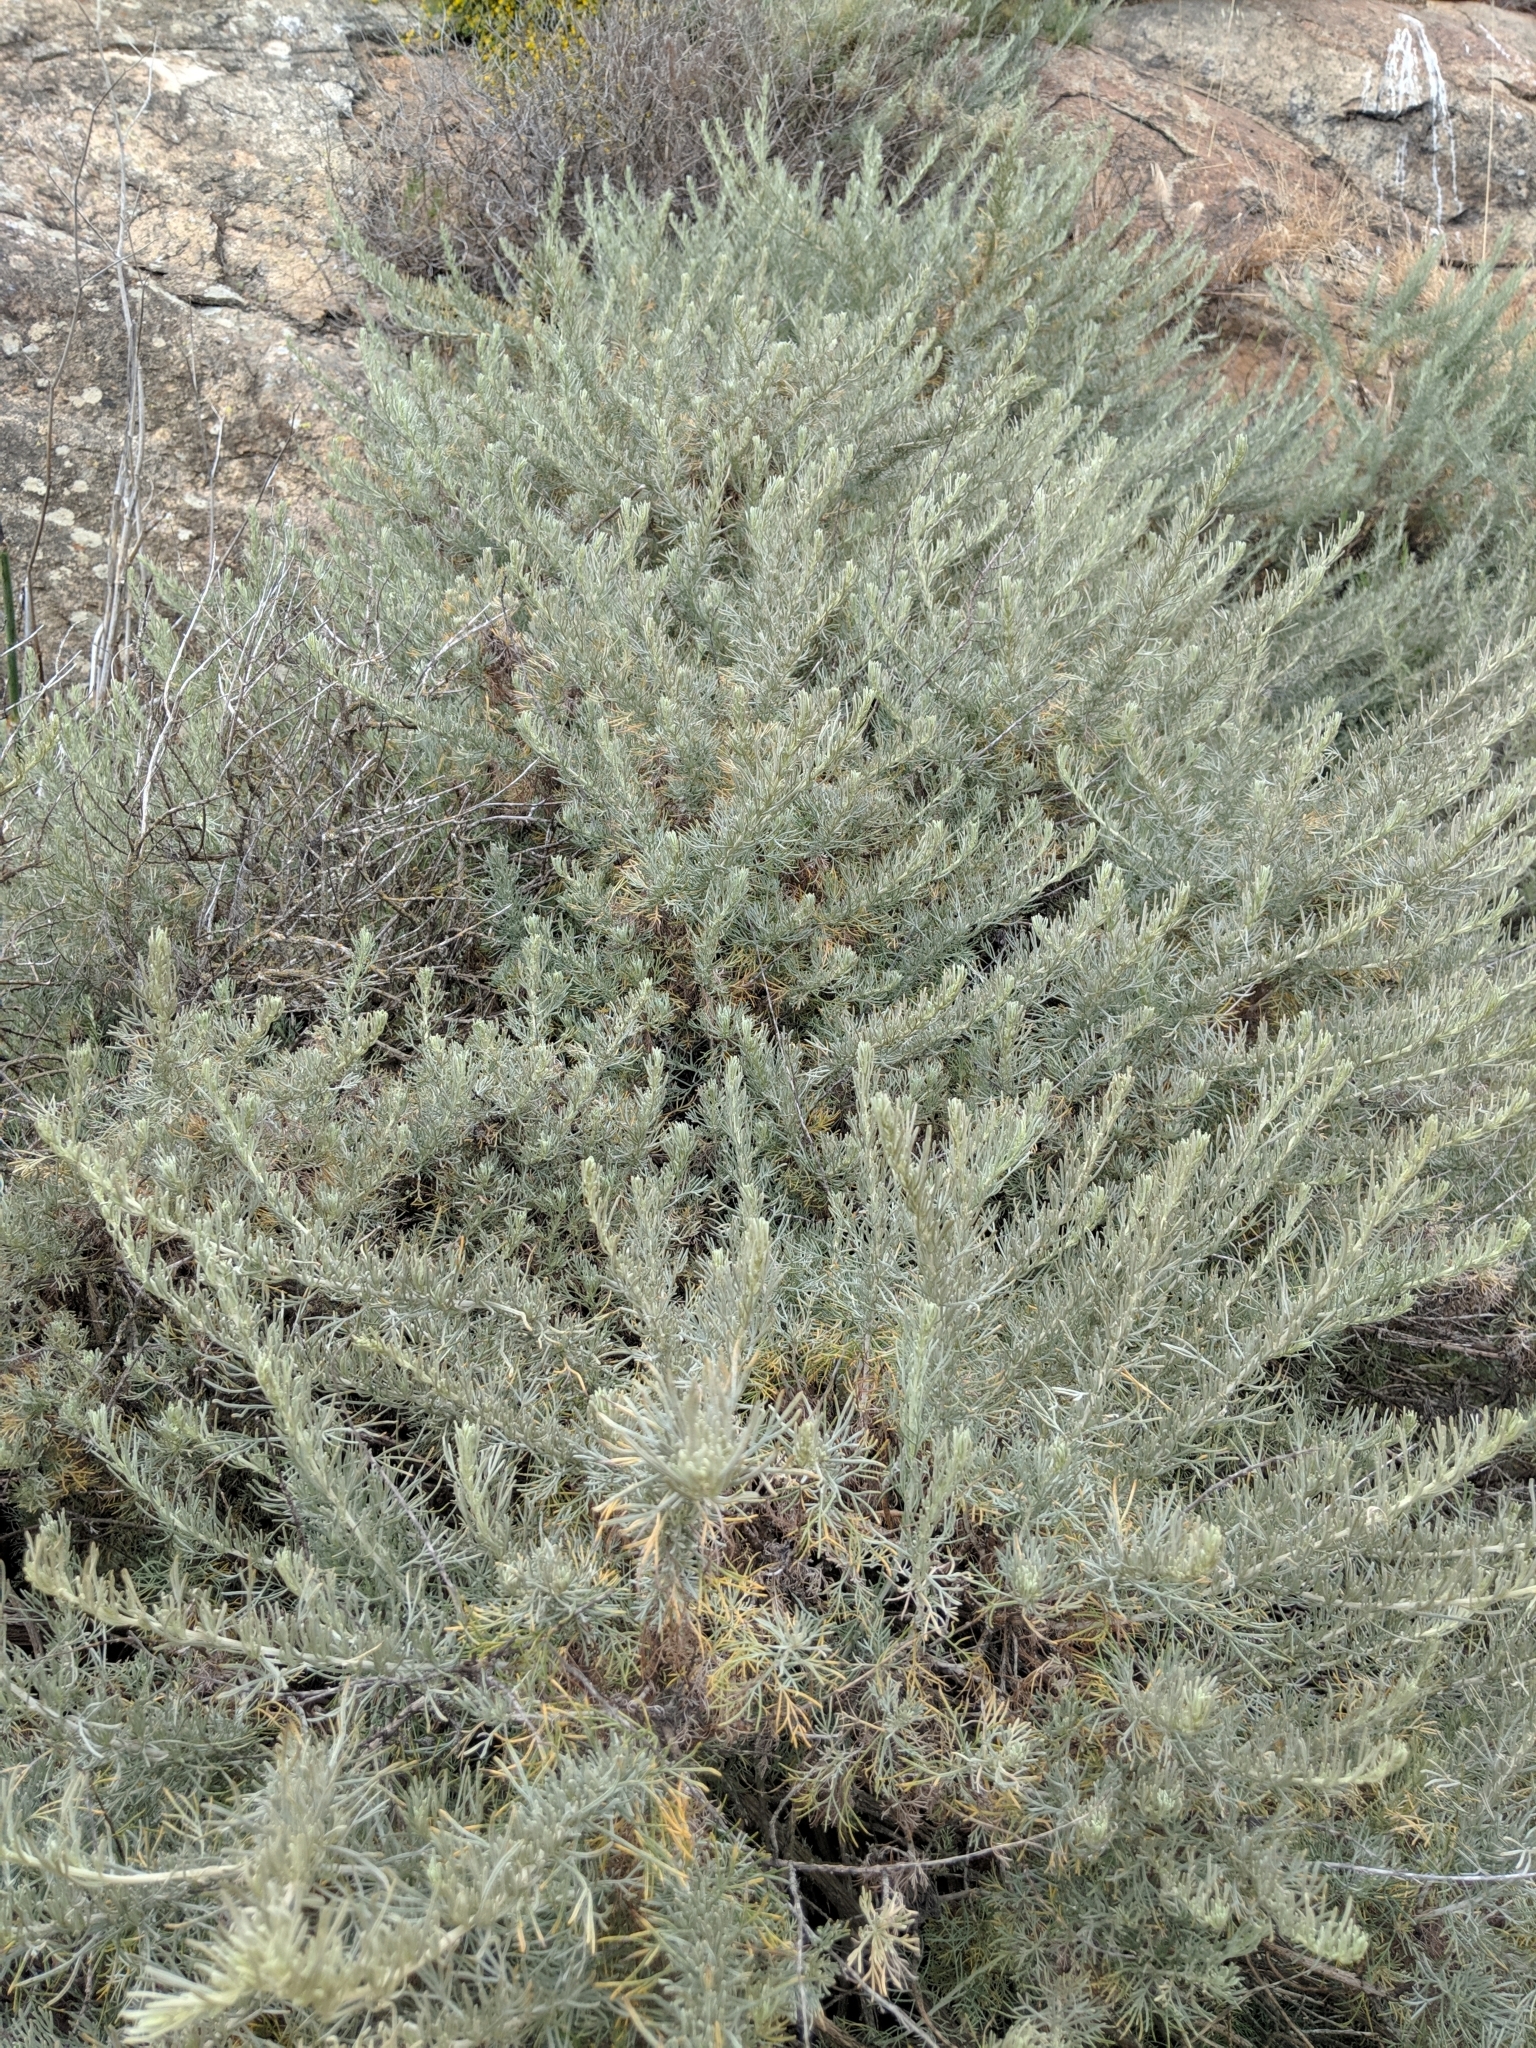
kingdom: Plantae
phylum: Tracheophyta
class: Magnoliopsida
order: Asterales
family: Asteraceae
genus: Artemisia
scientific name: Artemisia californica
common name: California sagebrush
